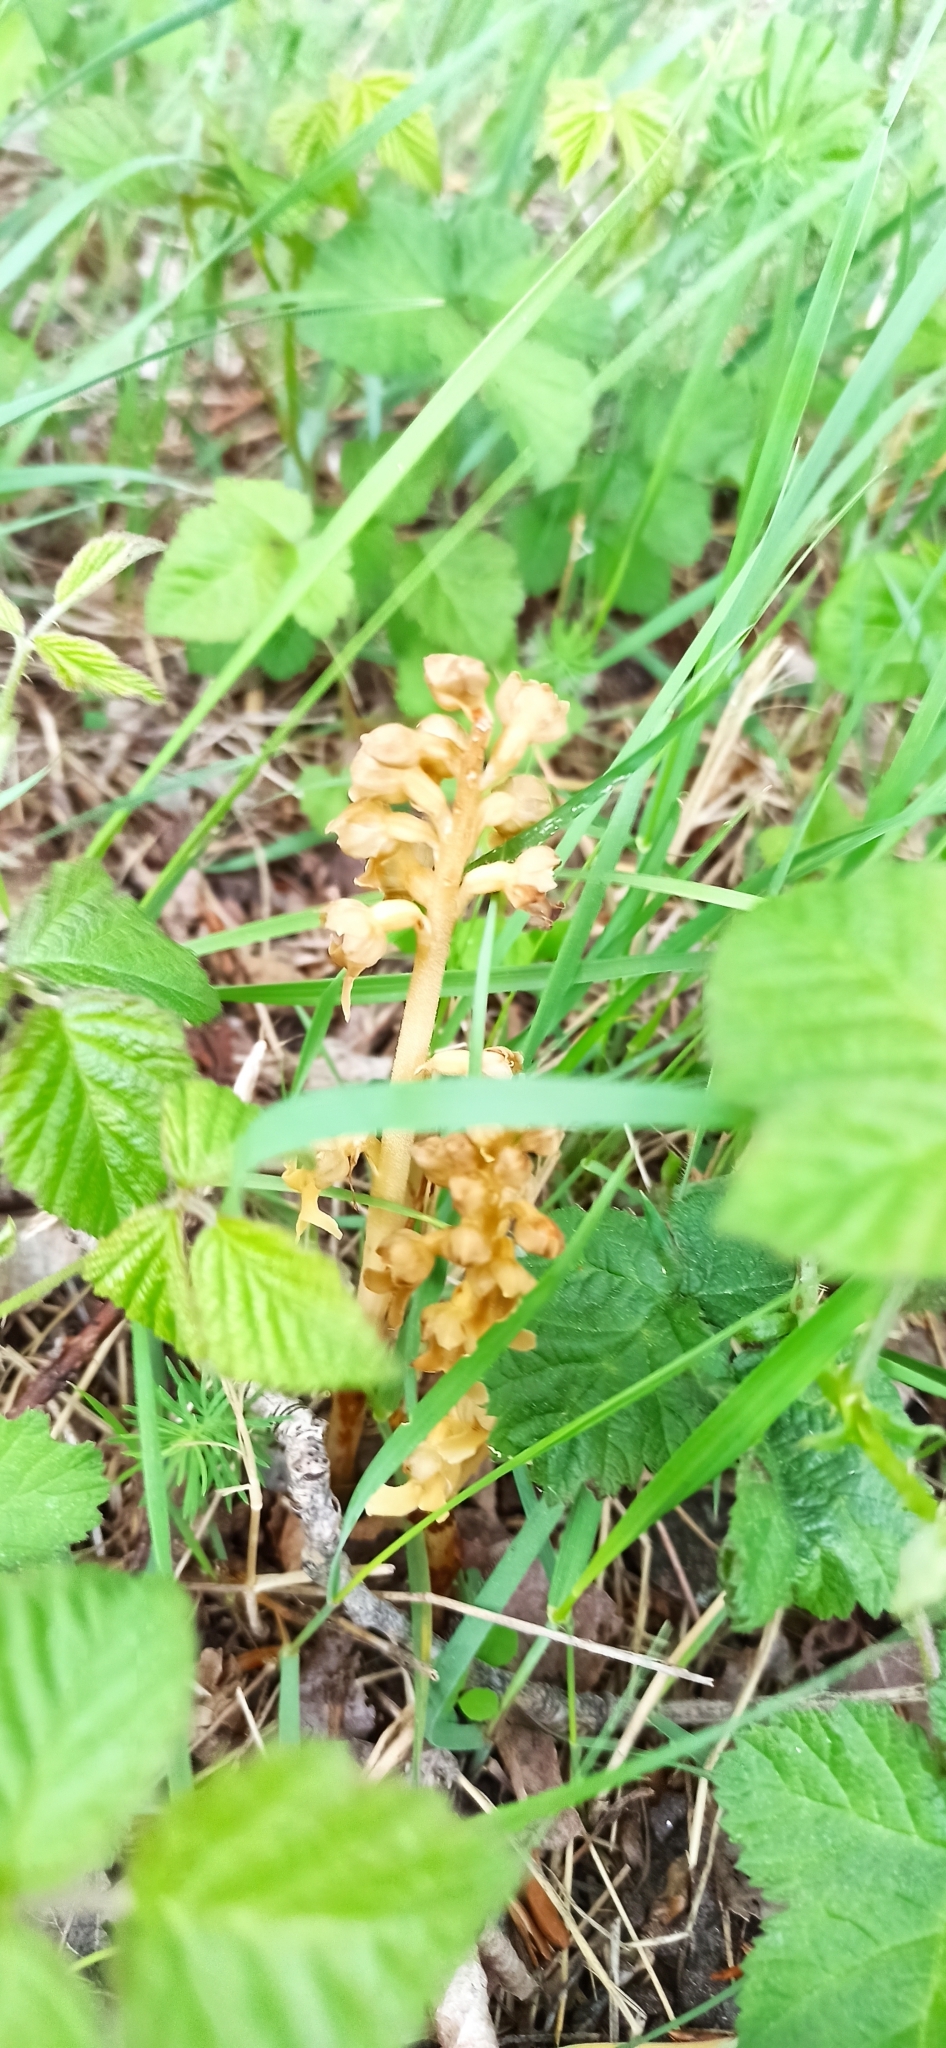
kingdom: Plantae
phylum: Tracheophyta
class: Liliopsida
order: Asparagales
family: Orchidaceae
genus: Neottia
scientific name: Neottia nidus-avis
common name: Bird's-nest orchid
